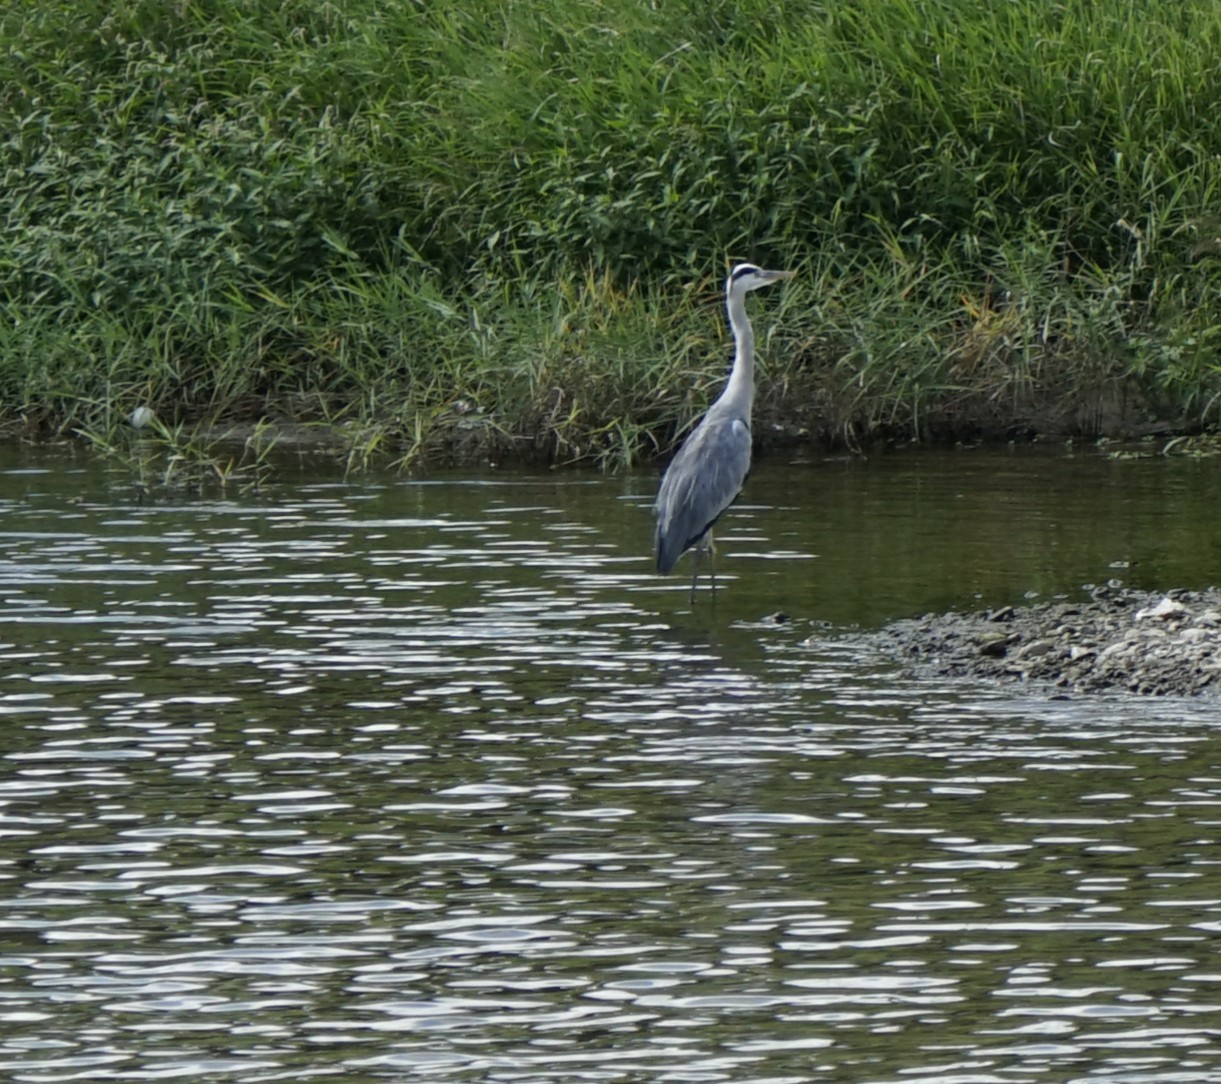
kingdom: Animalia
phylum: Chordata
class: Aves
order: Pelecaniformes
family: Ardeidae
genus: Ardea
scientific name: Ardea cinerea
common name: Grey heron
